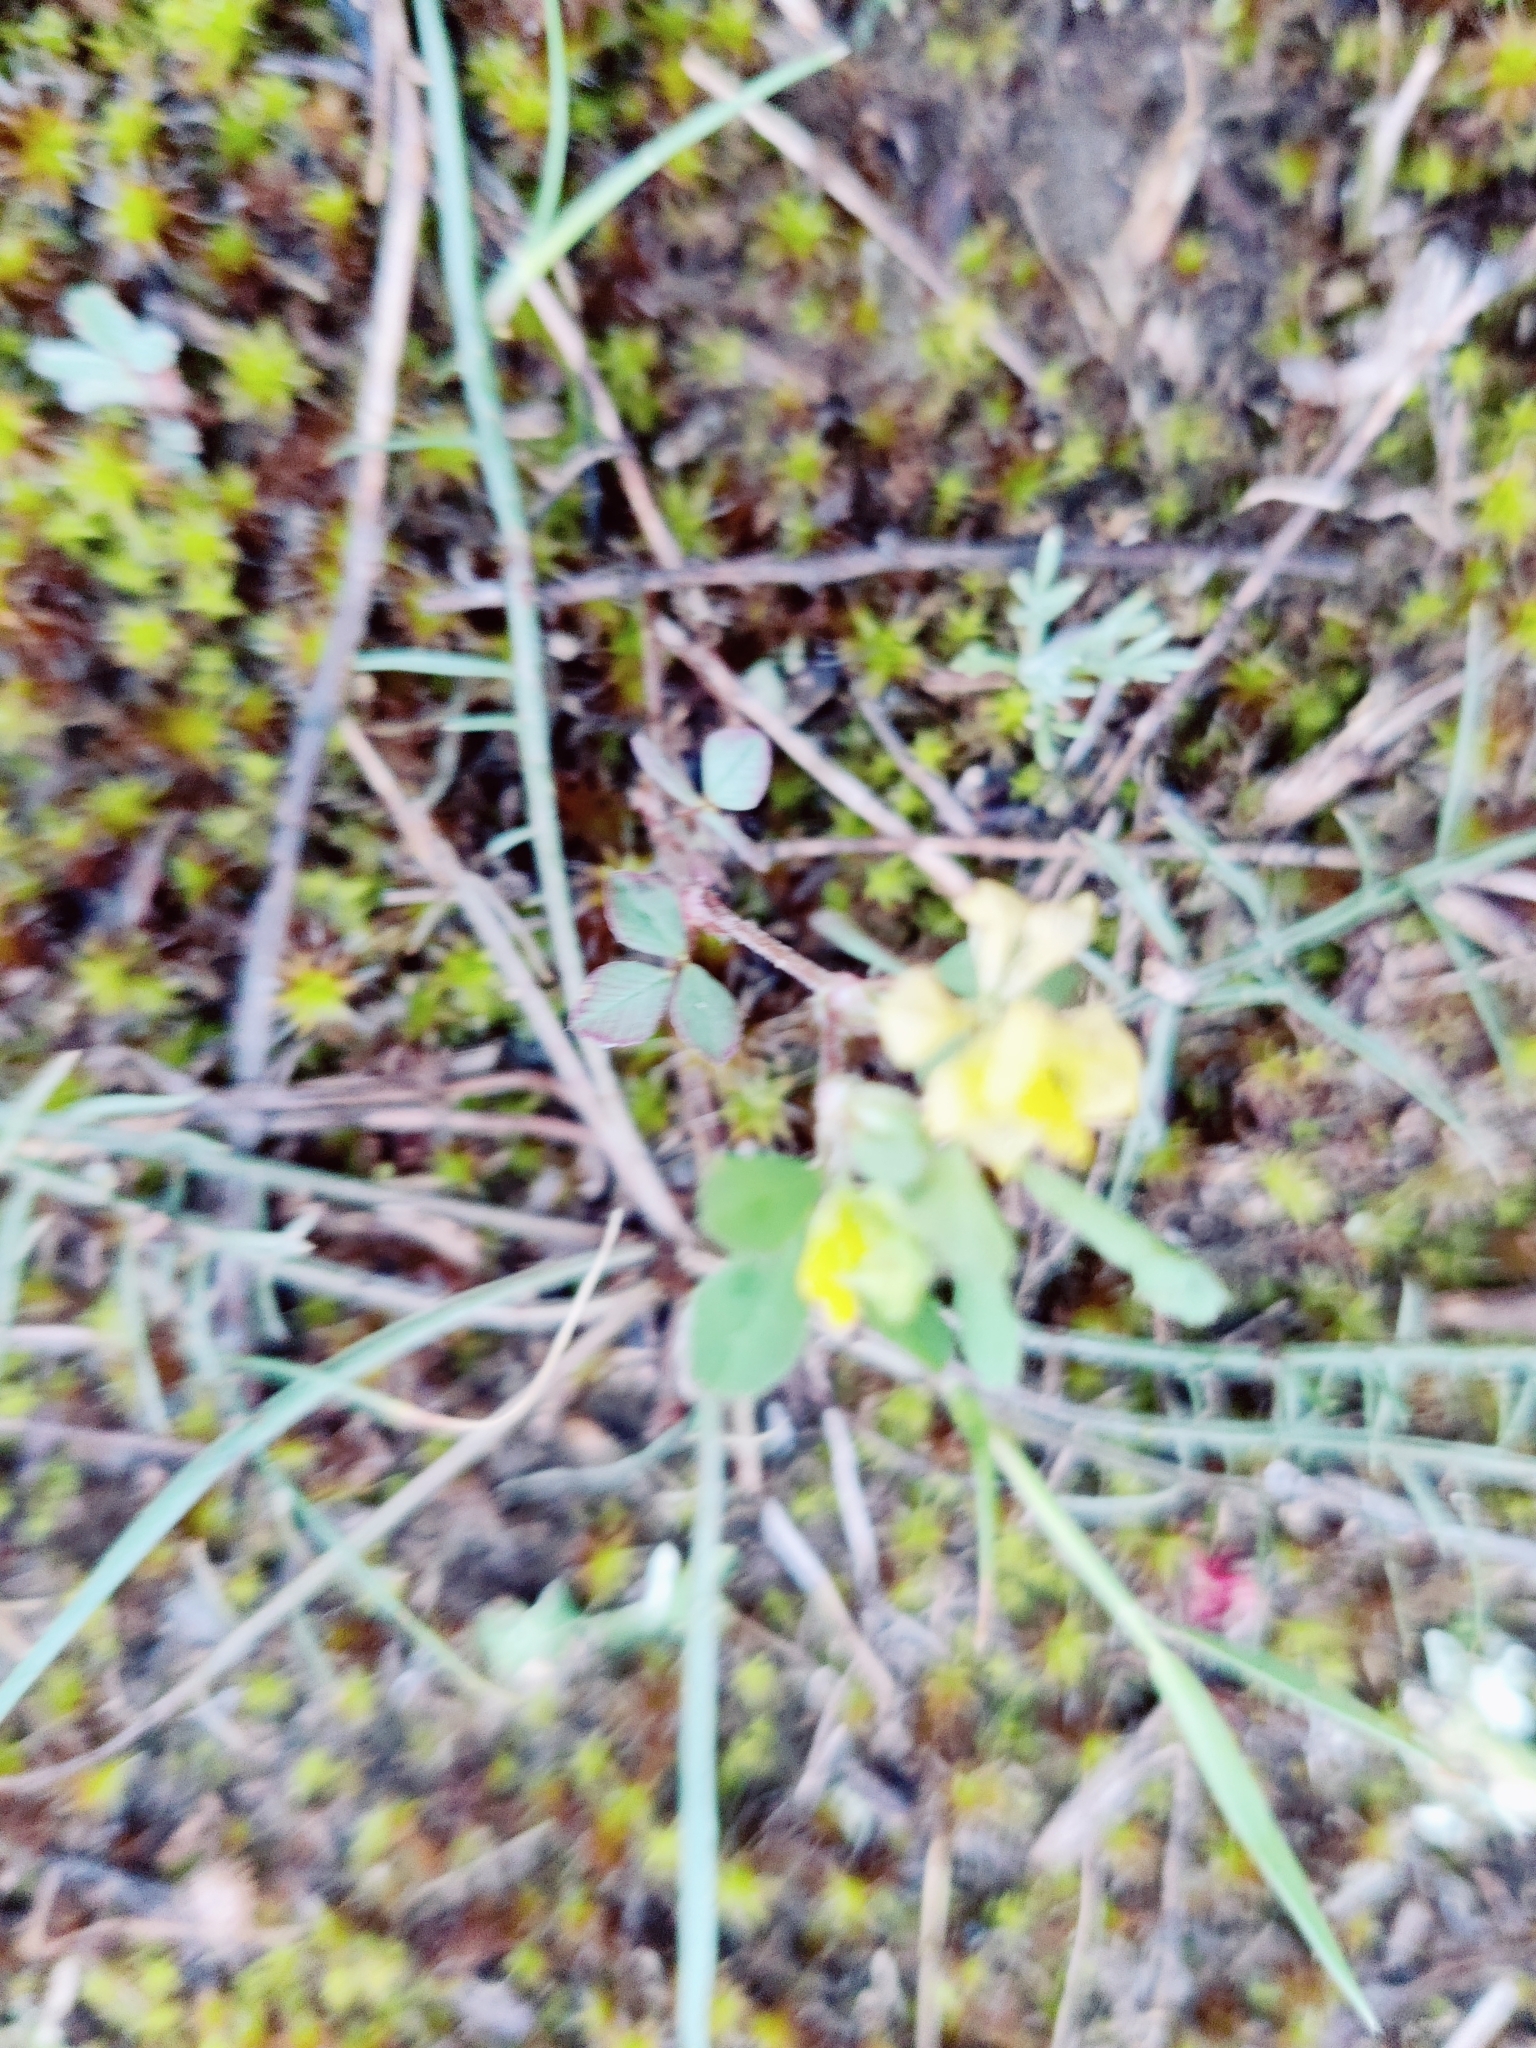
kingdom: Plantae
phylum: Tracheophyta
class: Magnoliopsida
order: Fabales
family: Fabaceae
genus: Trifolium
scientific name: Trifolium campestre
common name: Field clover
